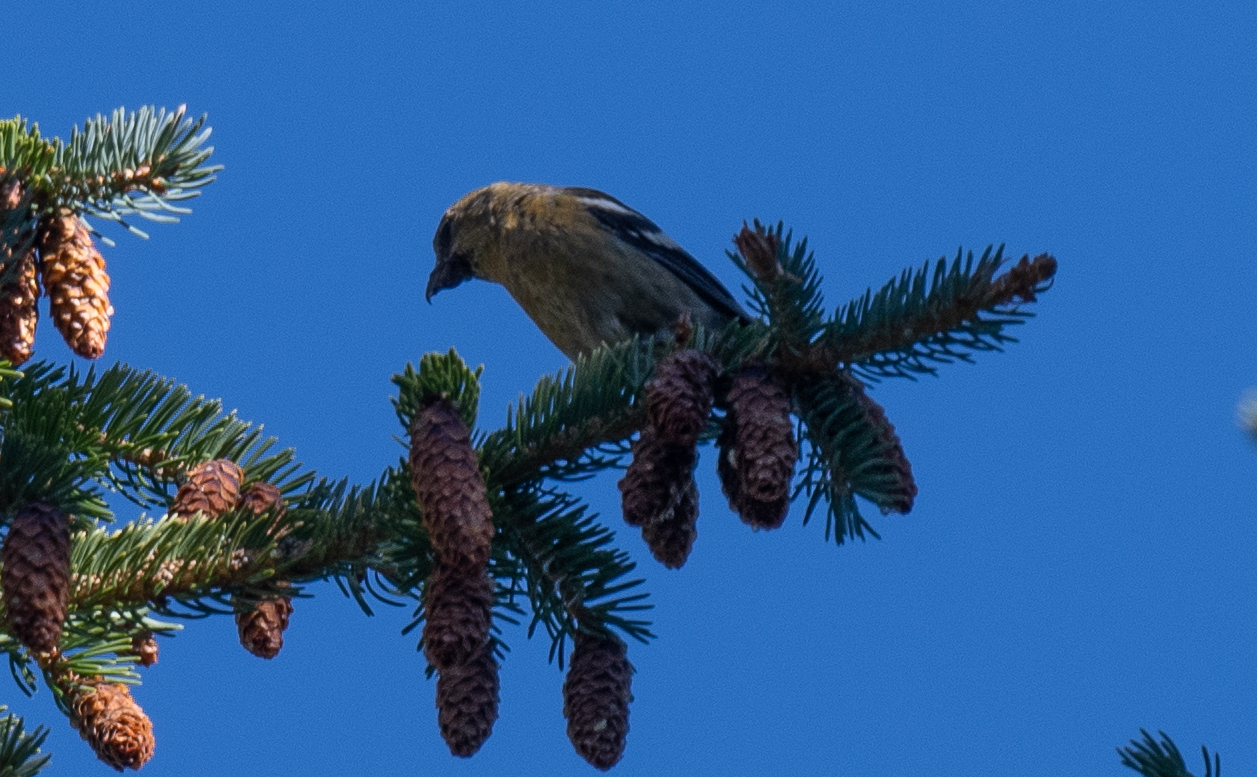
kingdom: Animalia
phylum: Chordata
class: Aves
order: Passeriformes
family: Fringillidae
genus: Loxia
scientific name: Loxia leucoptera
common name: Two-barred crossbill
